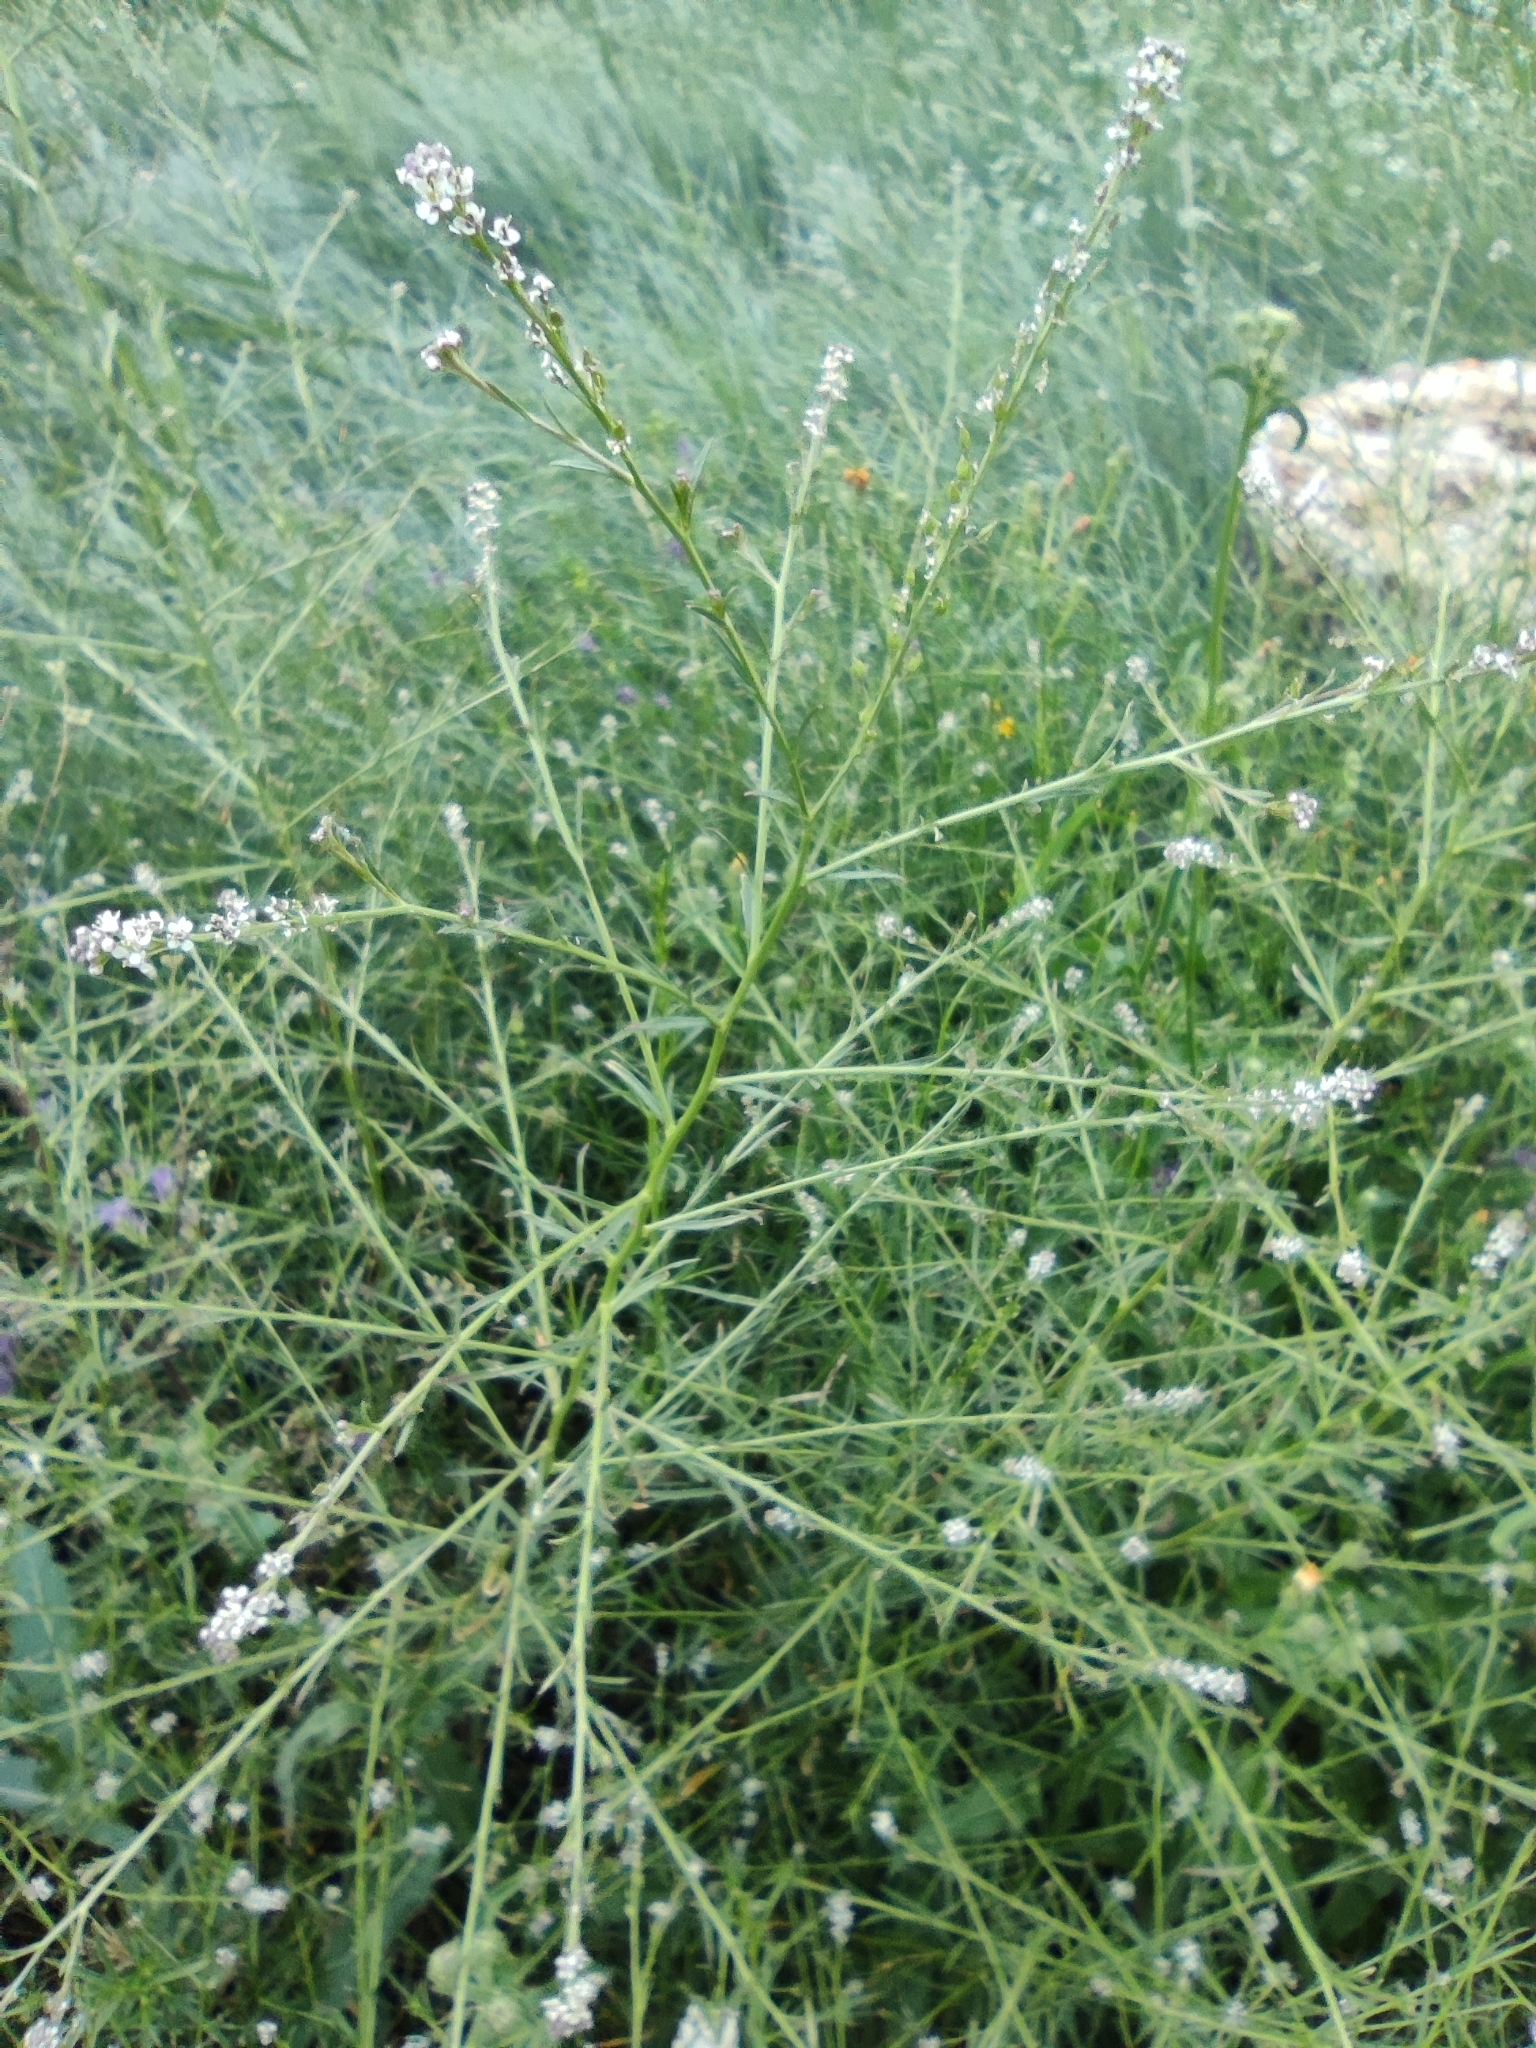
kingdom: Plantae
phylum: Tracheophyta
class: Magnoliopsida
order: Brassicales
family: Brassicaceae
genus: Lepidium
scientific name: Lepidium graminifolium
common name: Tall pepperwort
